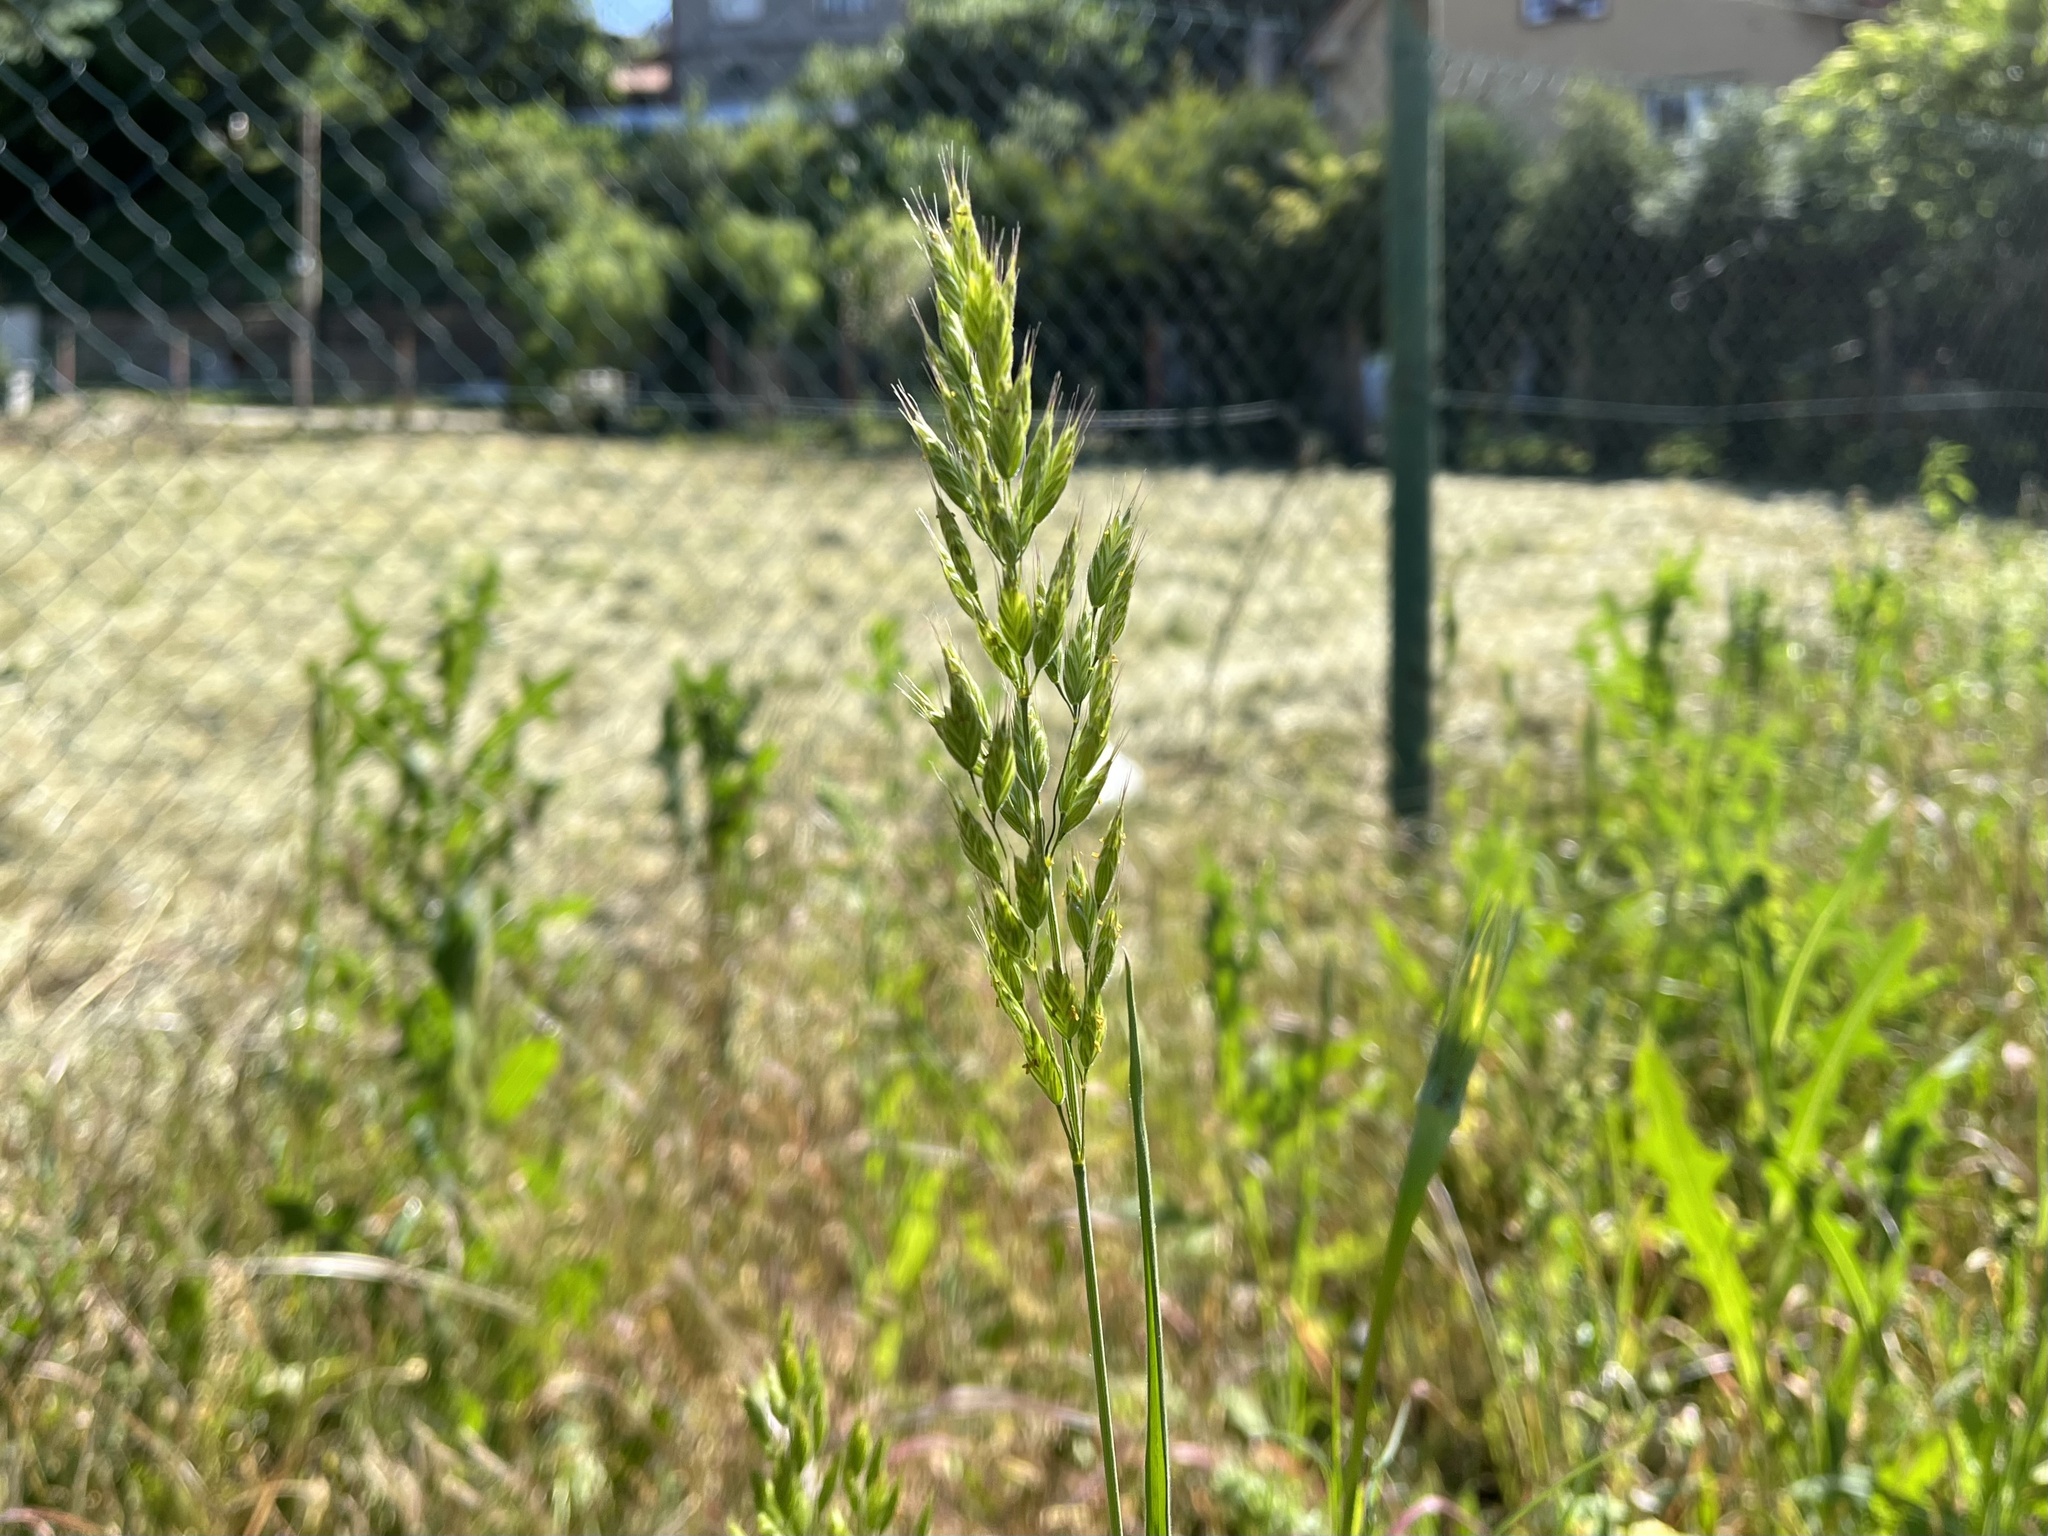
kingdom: Plantae
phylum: Tracheophyta
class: Liliopsida
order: Poales
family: Poaceae
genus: Bromus
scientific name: Bromus hordeaceus
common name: Soft brome
